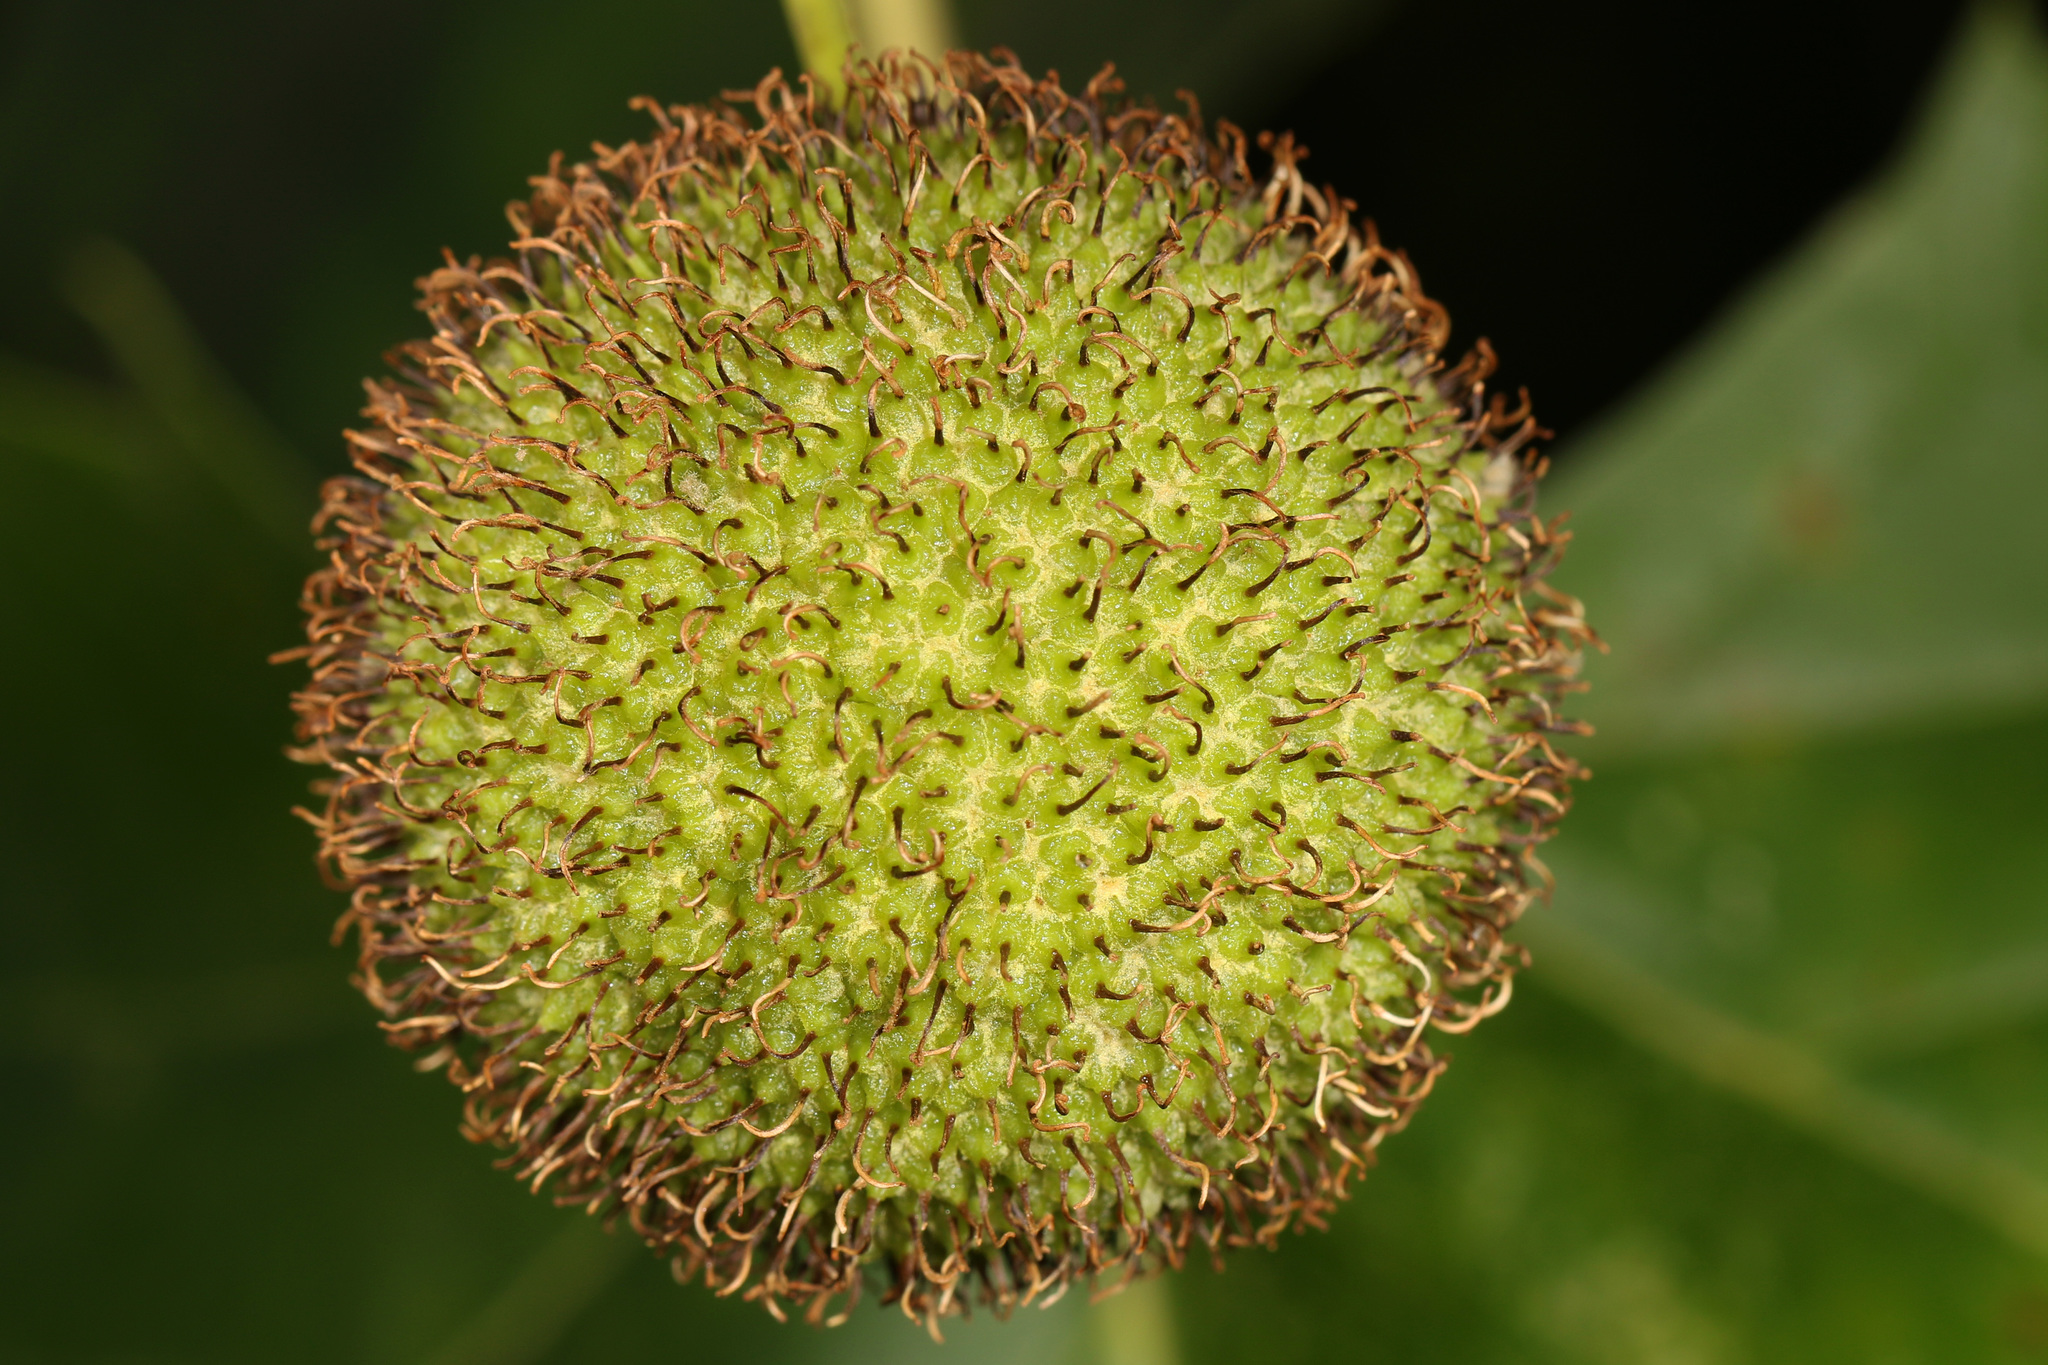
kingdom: Plantae
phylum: Tracheophyta
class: Magnoliopsida
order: Proteales
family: Platanaceae
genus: Platanus
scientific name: Platanus occidentalis
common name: American sycamore
